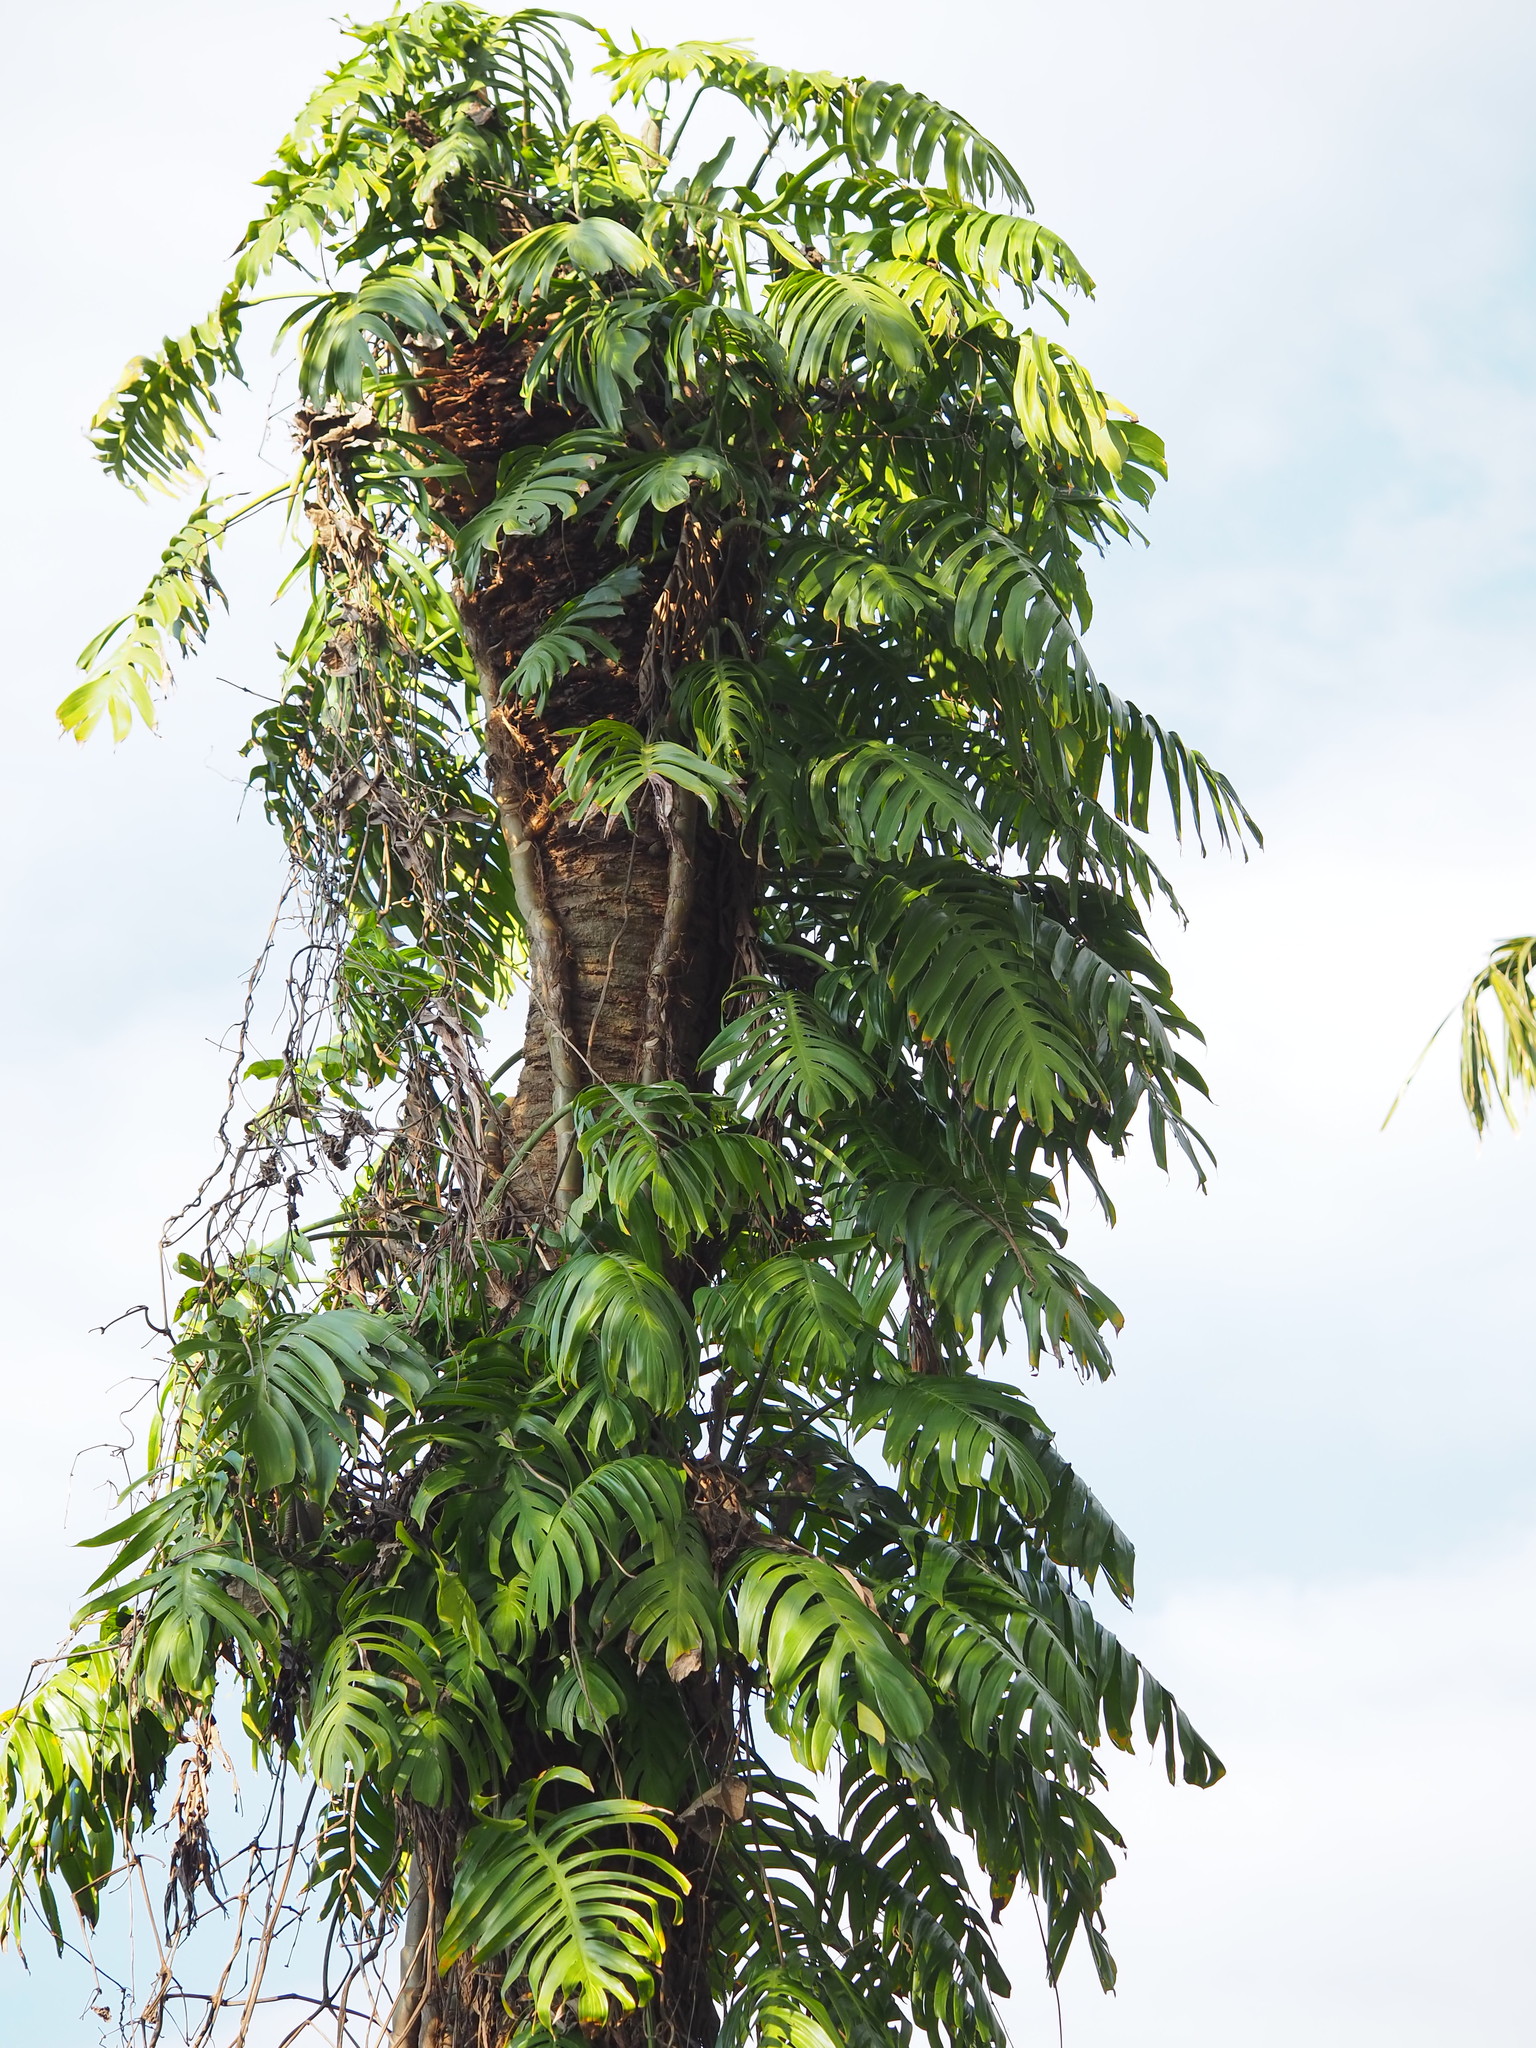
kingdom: Plantae
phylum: Tracheophyta
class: Liliopsida
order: Alismatales
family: Araceae
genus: Epipremnum
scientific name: Epipremnum pinnatum
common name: Centipede tongavine
